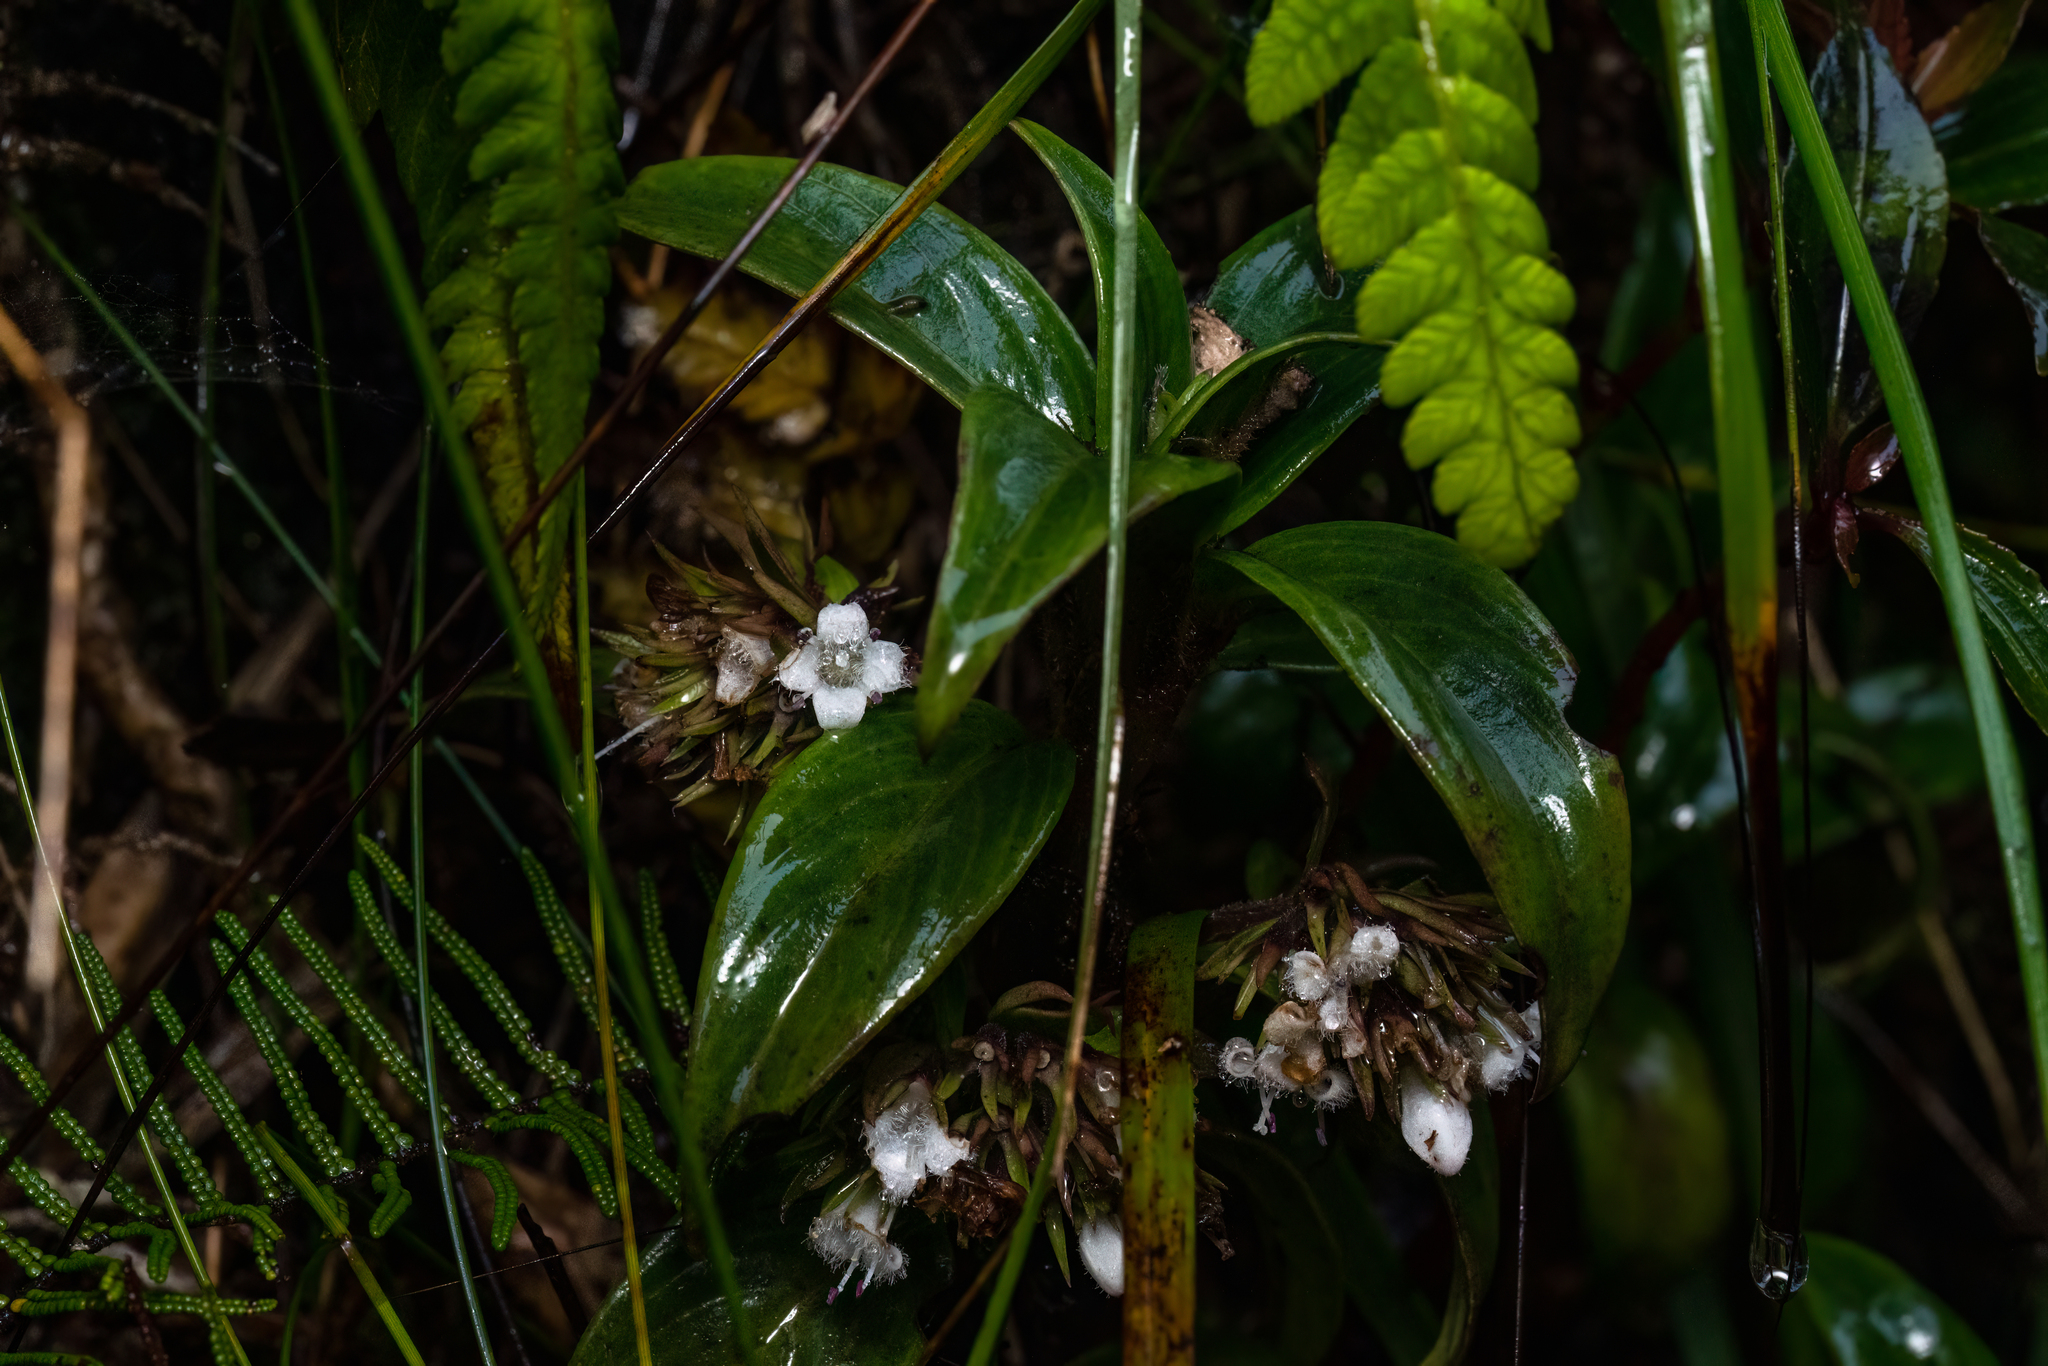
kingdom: Plantae
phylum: Tracheophyta
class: Magnoliopsida
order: Gentianales
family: Rubiaceae
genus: Hedyotis
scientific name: Hedyotis macrostegia
